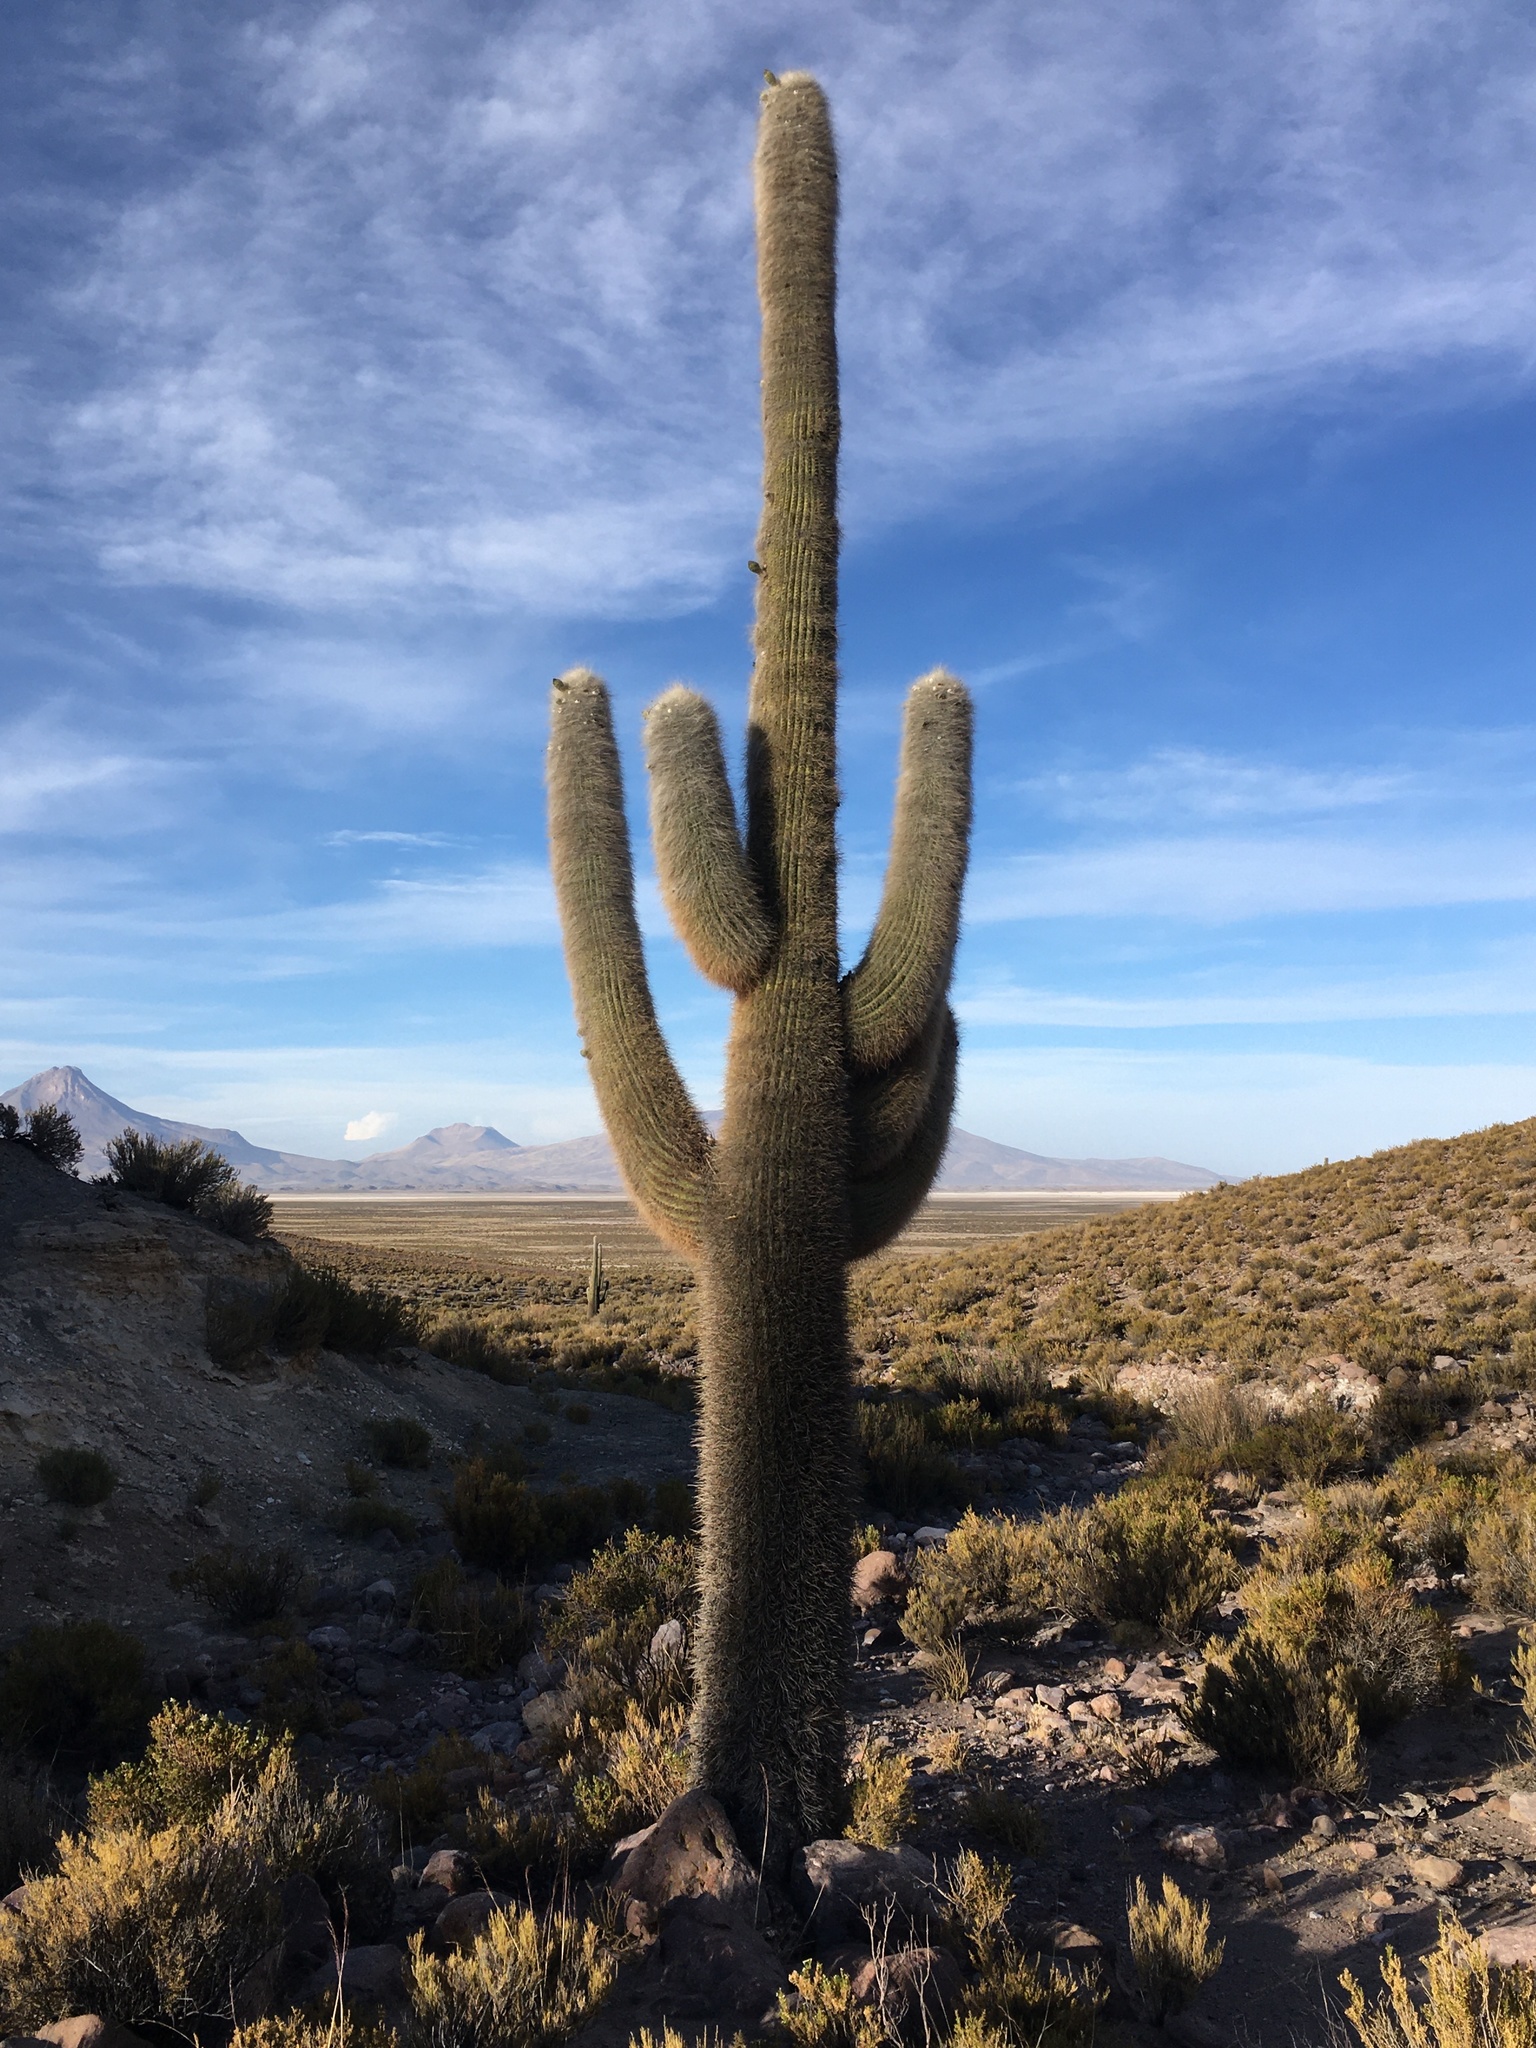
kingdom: Plantae
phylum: Tracheophyta
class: Magnoliopsida
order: Caryophyllales
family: Cactaceae
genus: Leucostele
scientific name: Leucostele atacamensis
